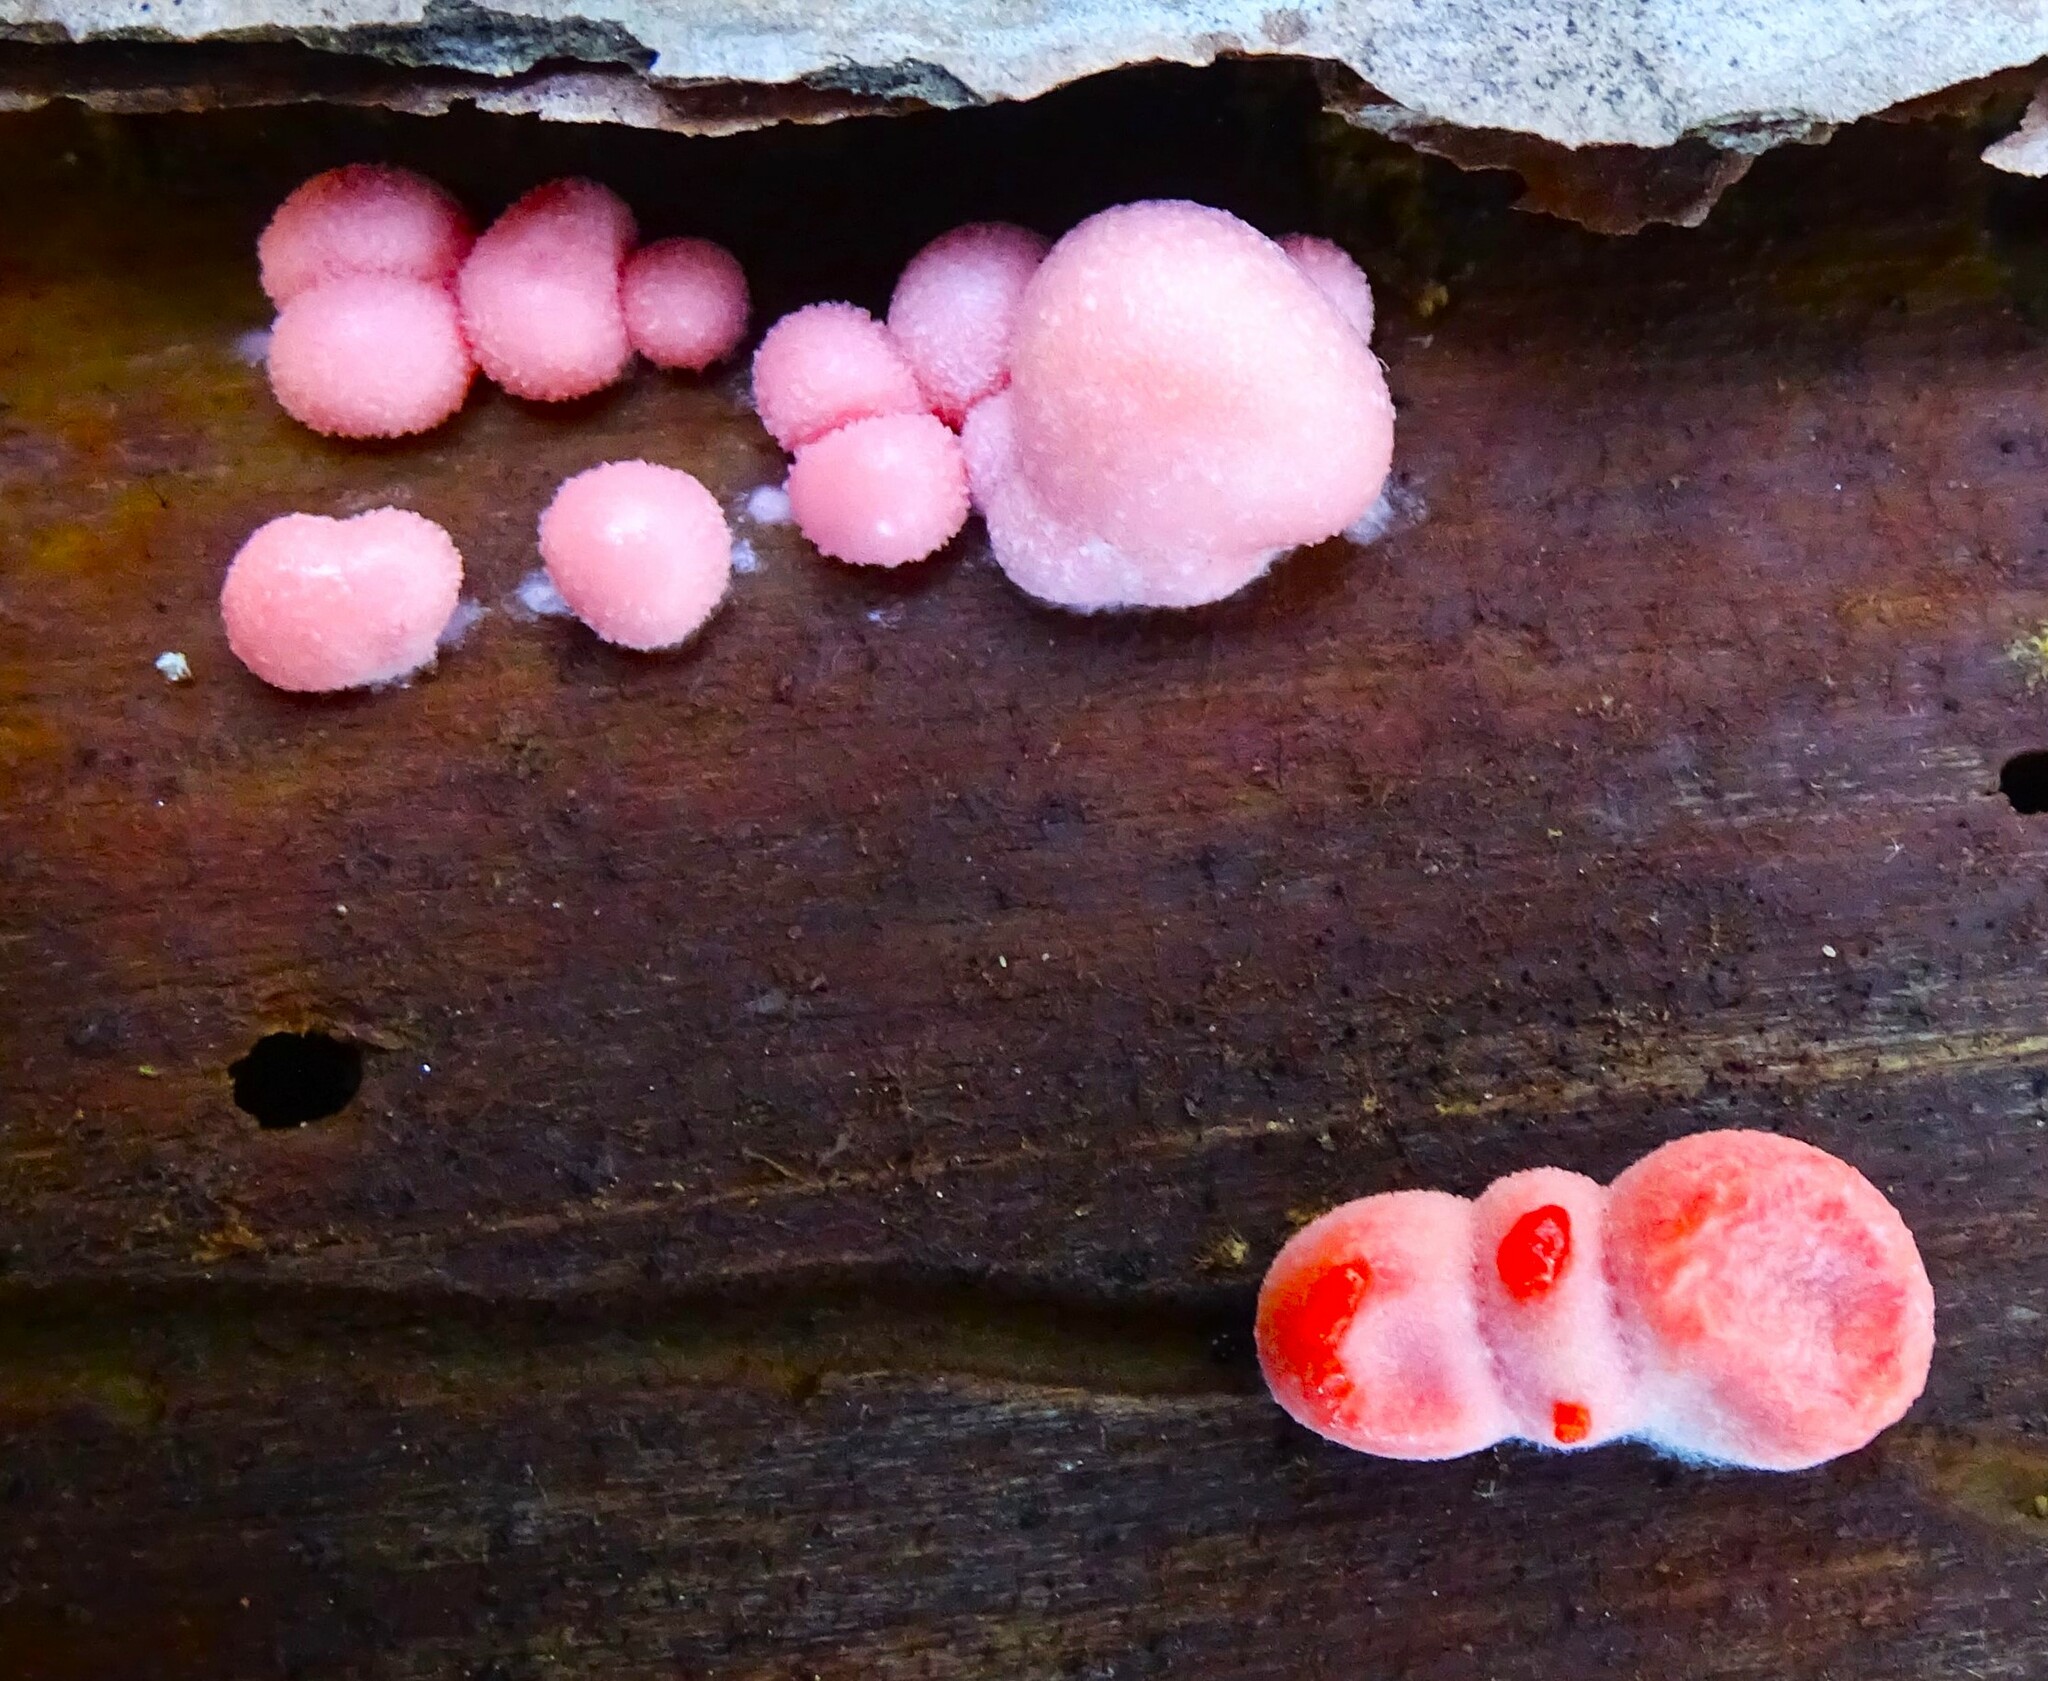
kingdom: Protozoa
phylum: Mycetozoa
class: Myxomycetes
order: Cribrariales
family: Tubiferaceae
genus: Lycogala
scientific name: Lycogala epidendrum
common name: Wolf's milk
